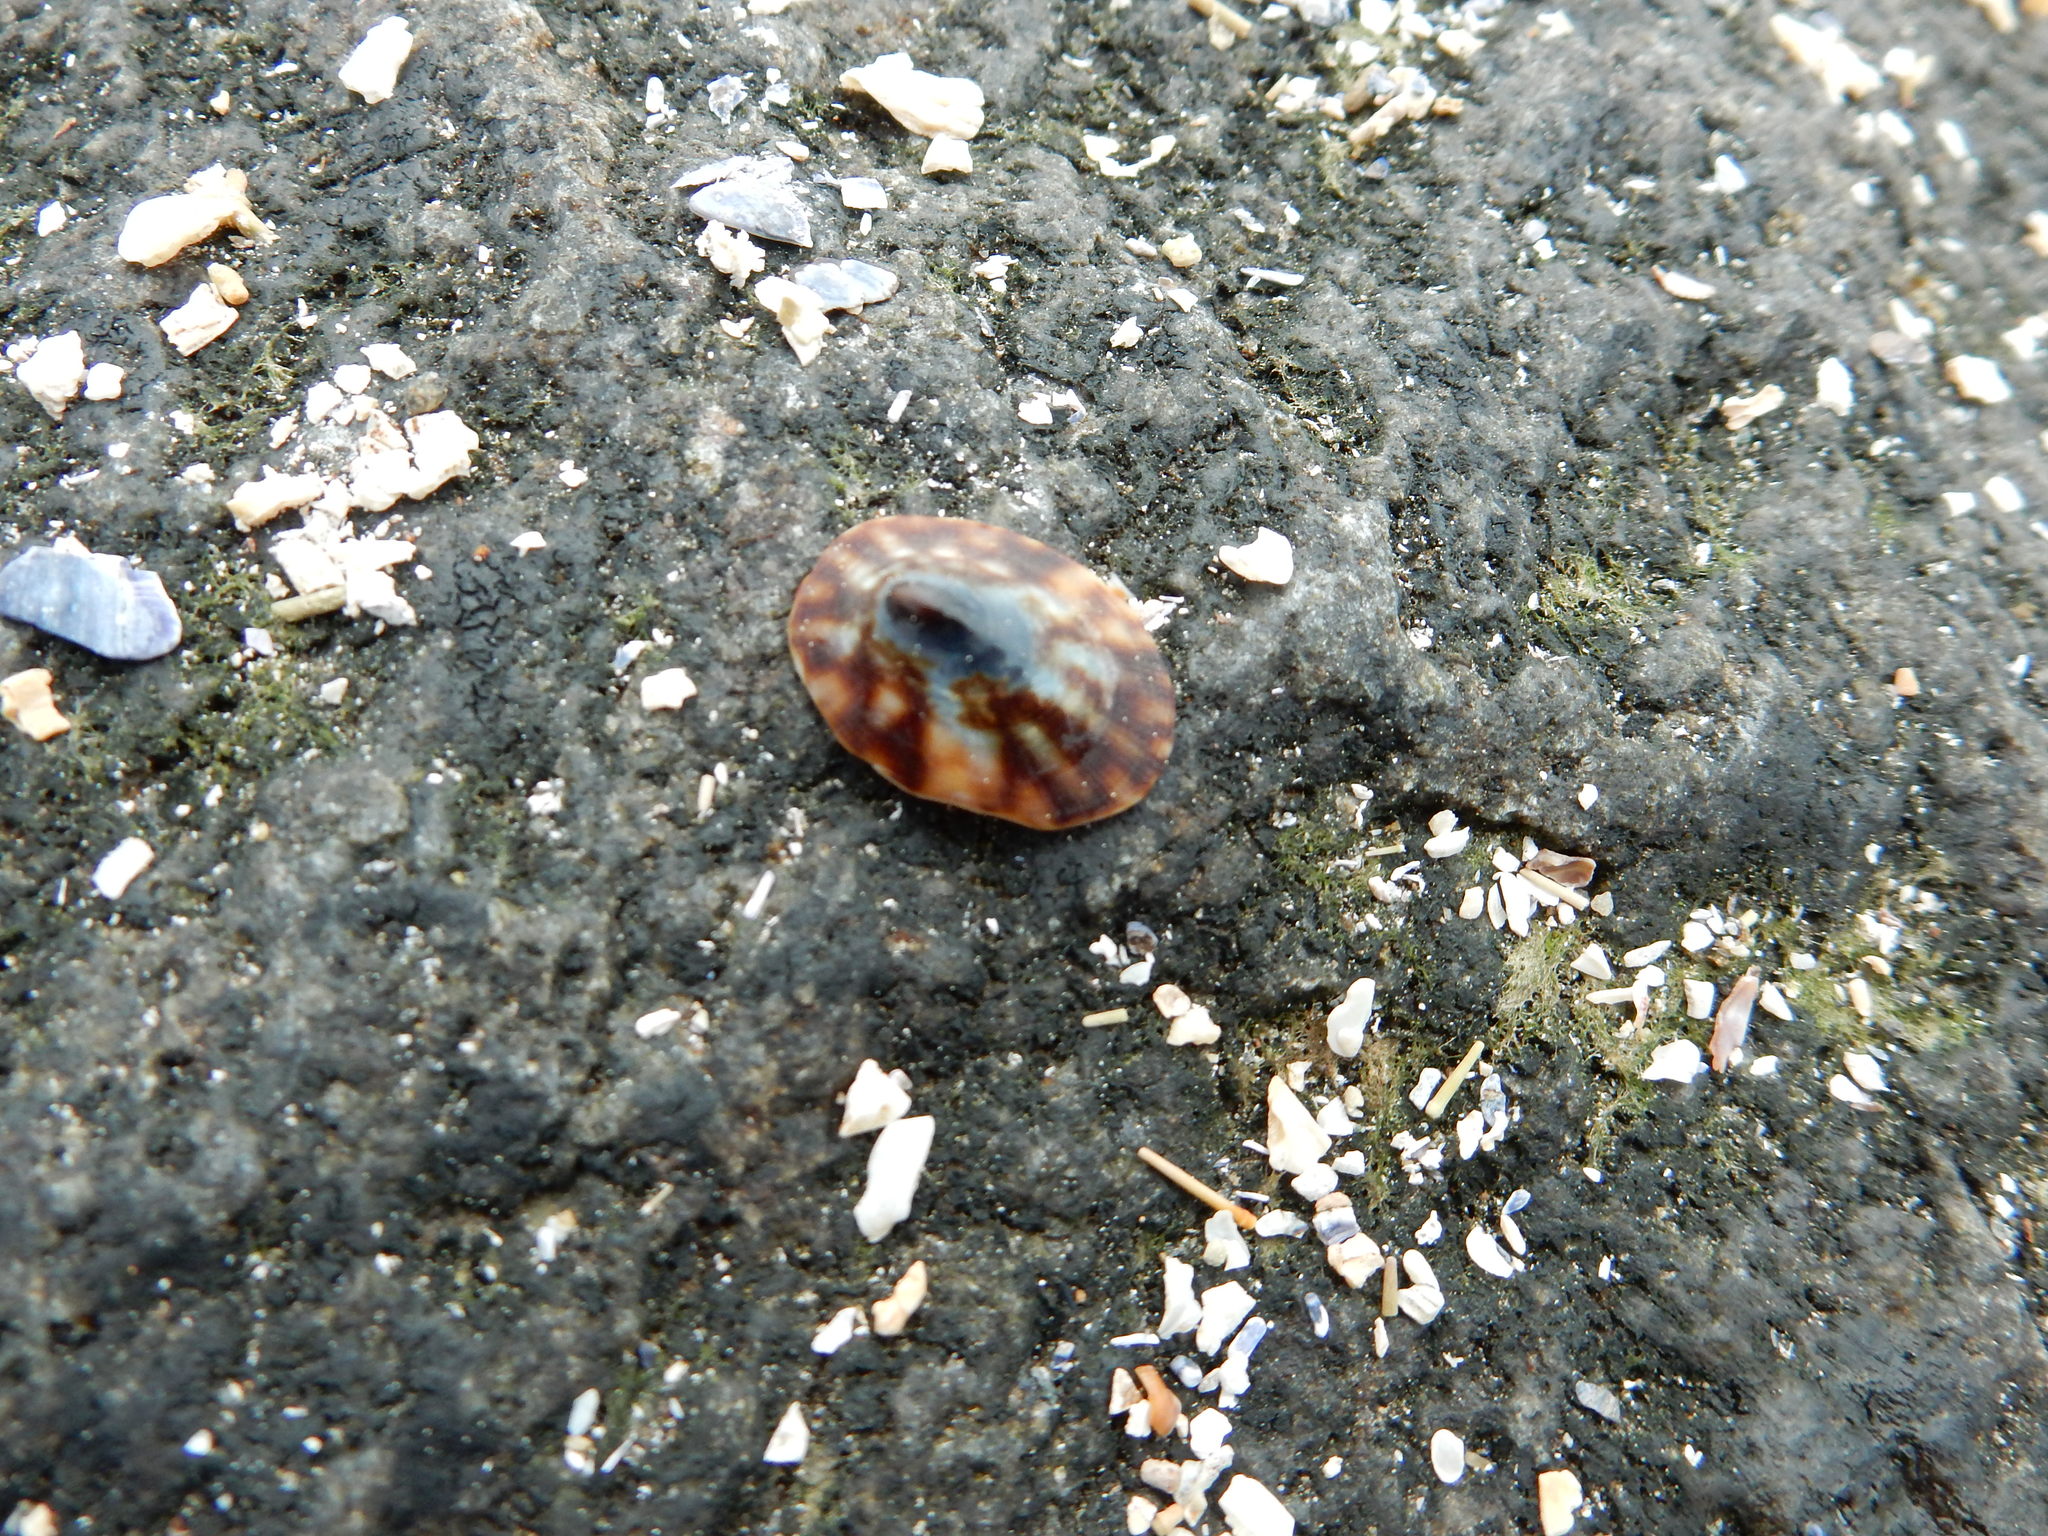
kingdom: Animalia
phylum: Mollusca
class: Gastropoda
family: Lottiidae
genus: Testudinalia
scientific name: Testudinalia testudinalis
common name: Common tortoiseshell limpet
